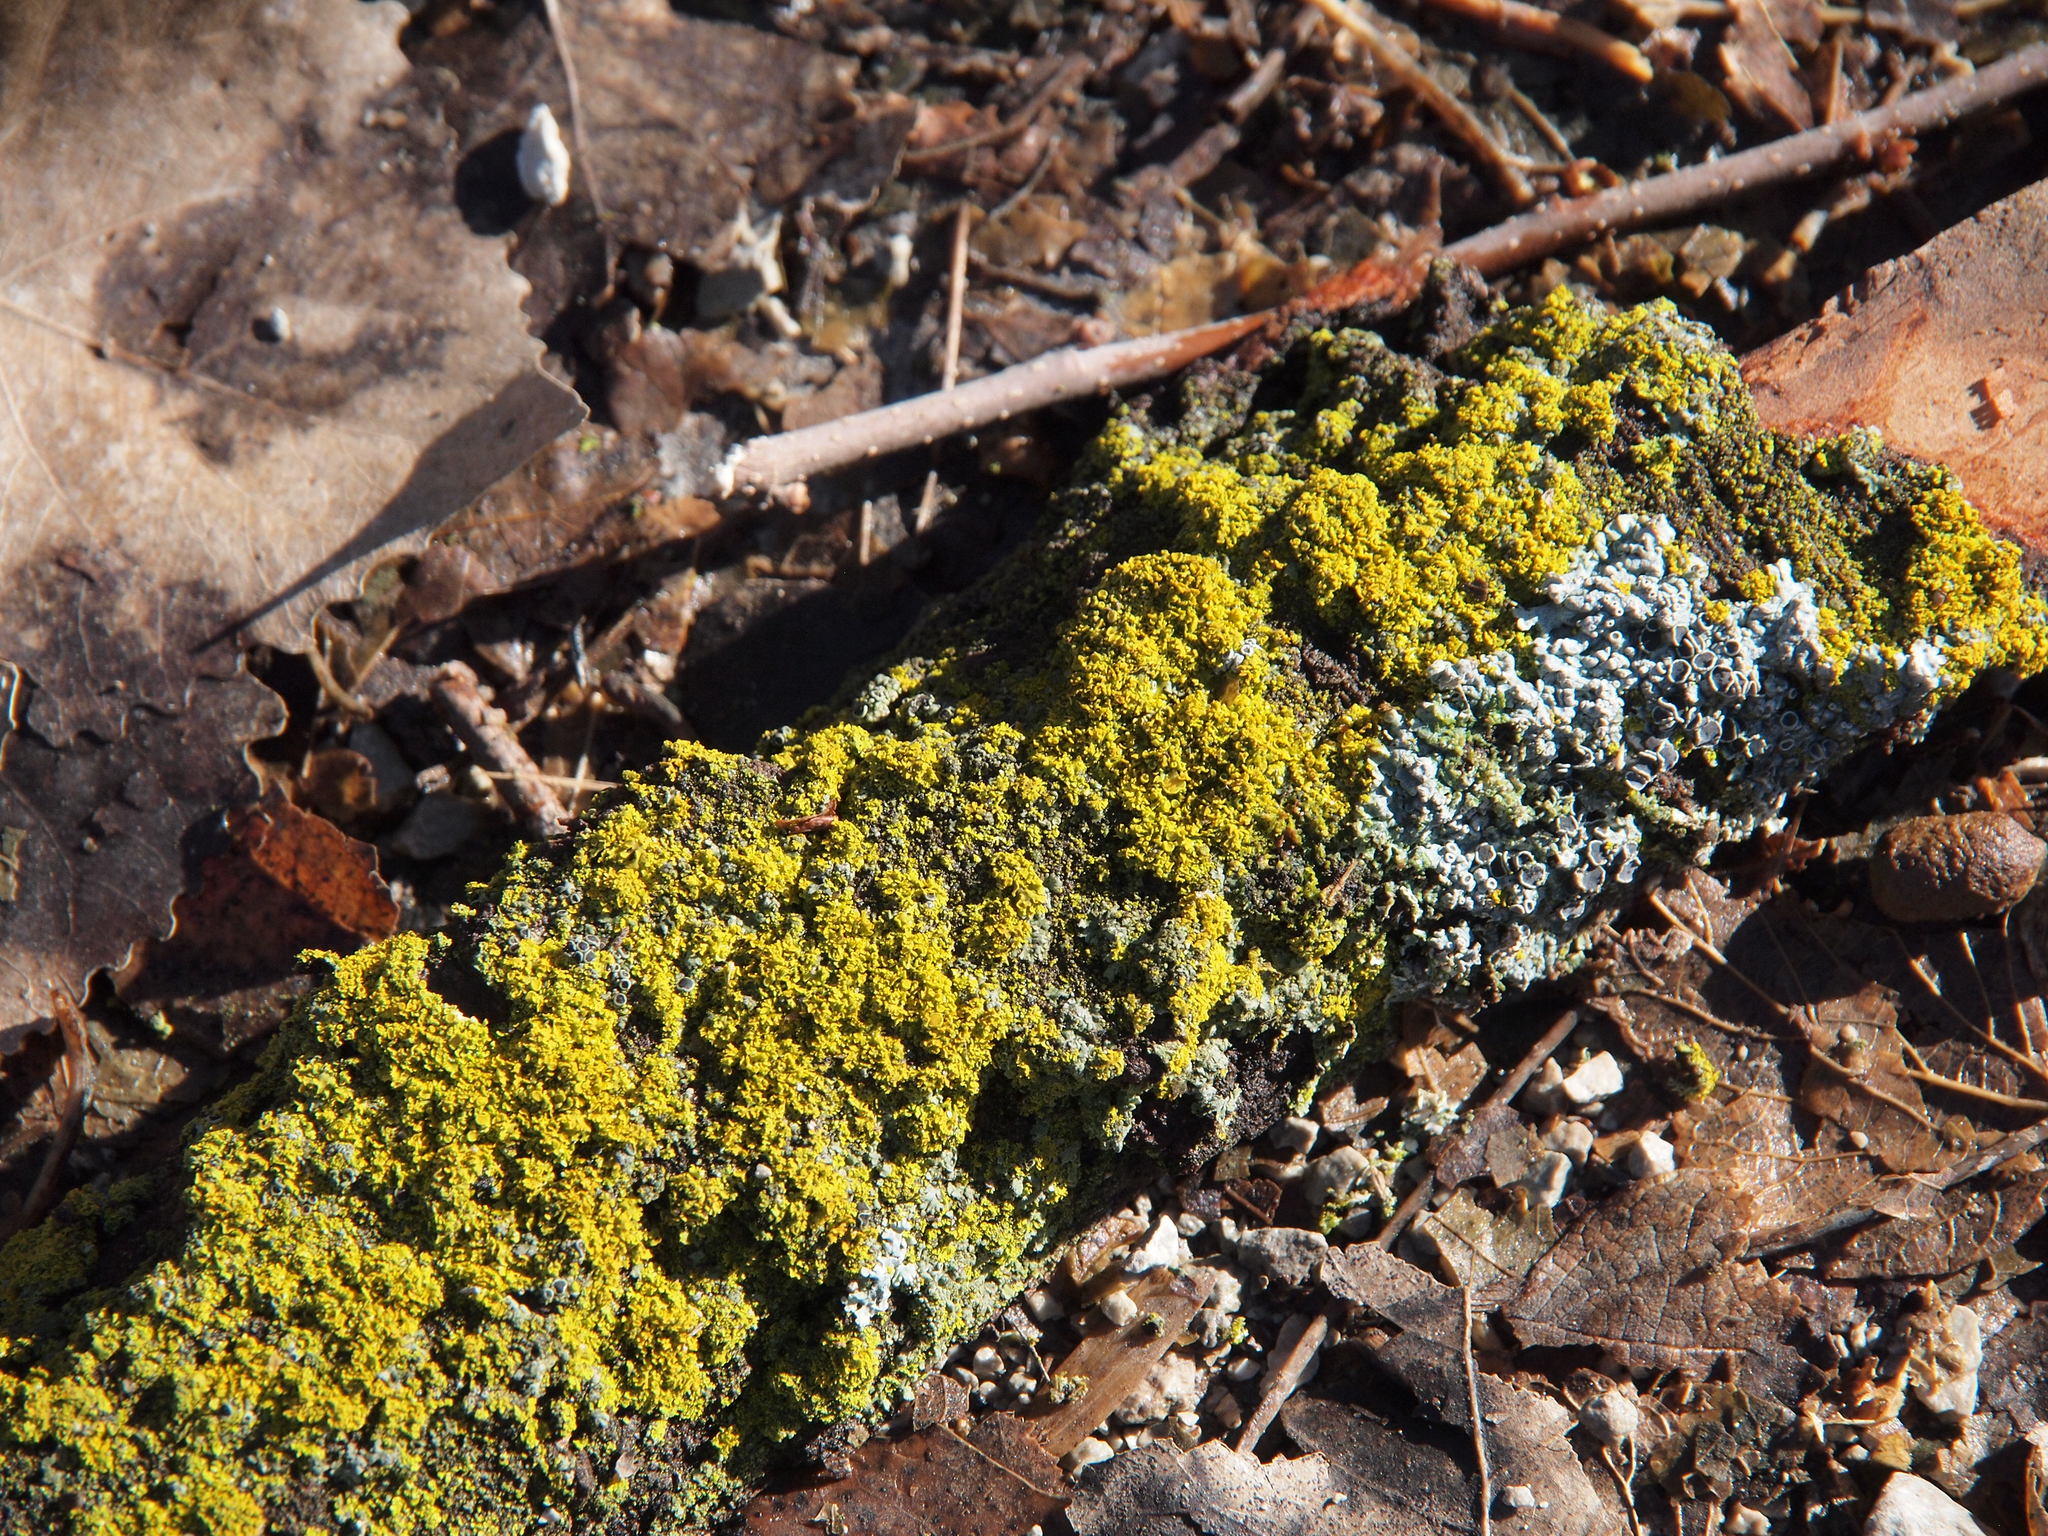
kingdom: Fungi
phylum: Ascomycota
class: Candelariomycetes
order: Candelariales
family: Candelariaceae
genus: Candelaria
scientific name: Candelaria concolor
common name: Candleflame lichen
